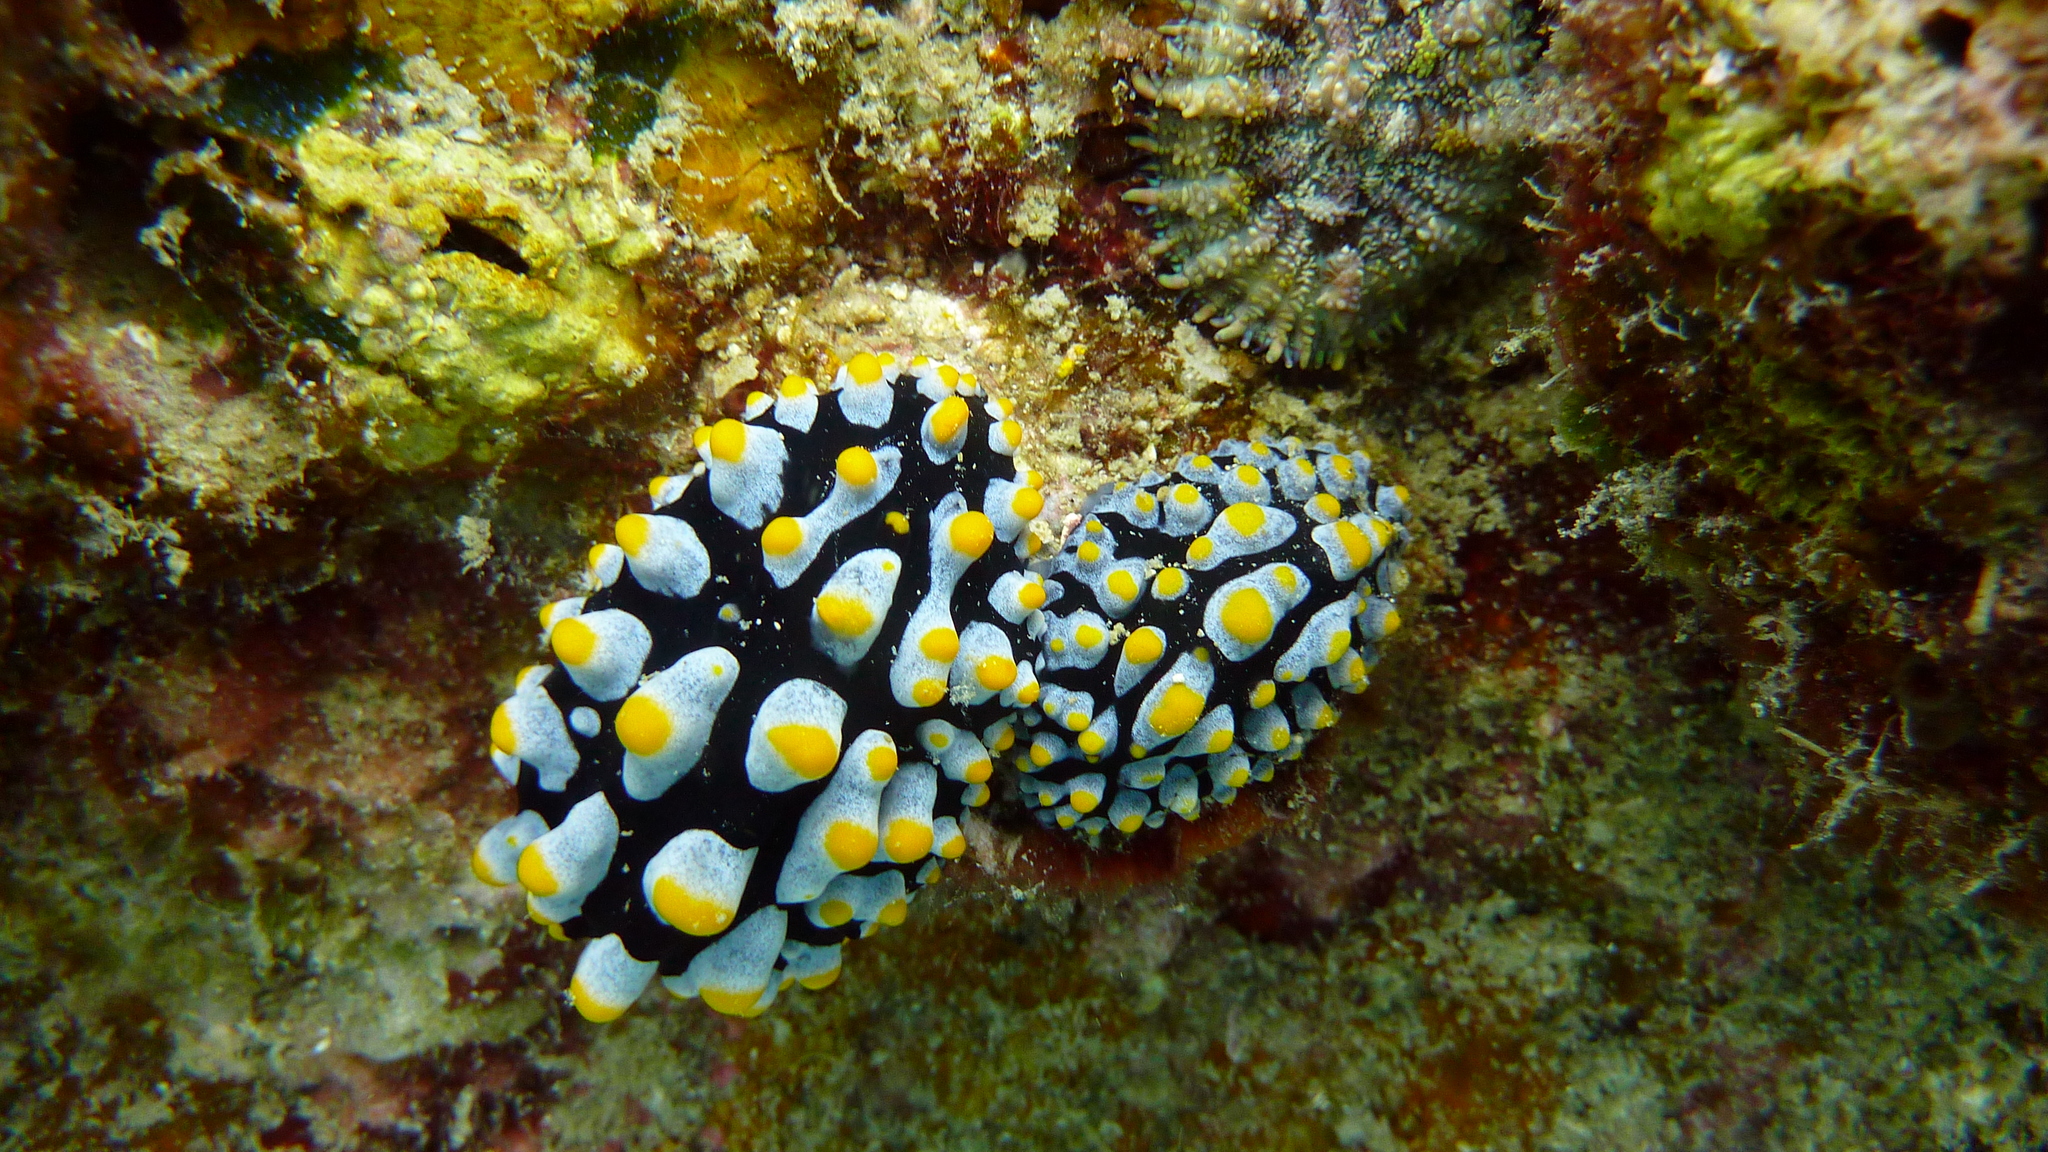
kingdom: Animalia
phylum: Mollusca
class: Gastropoda
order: Nudibranchia
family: Phyllidiidae
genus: Phyllidia
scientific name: Phyllidia varicosa
